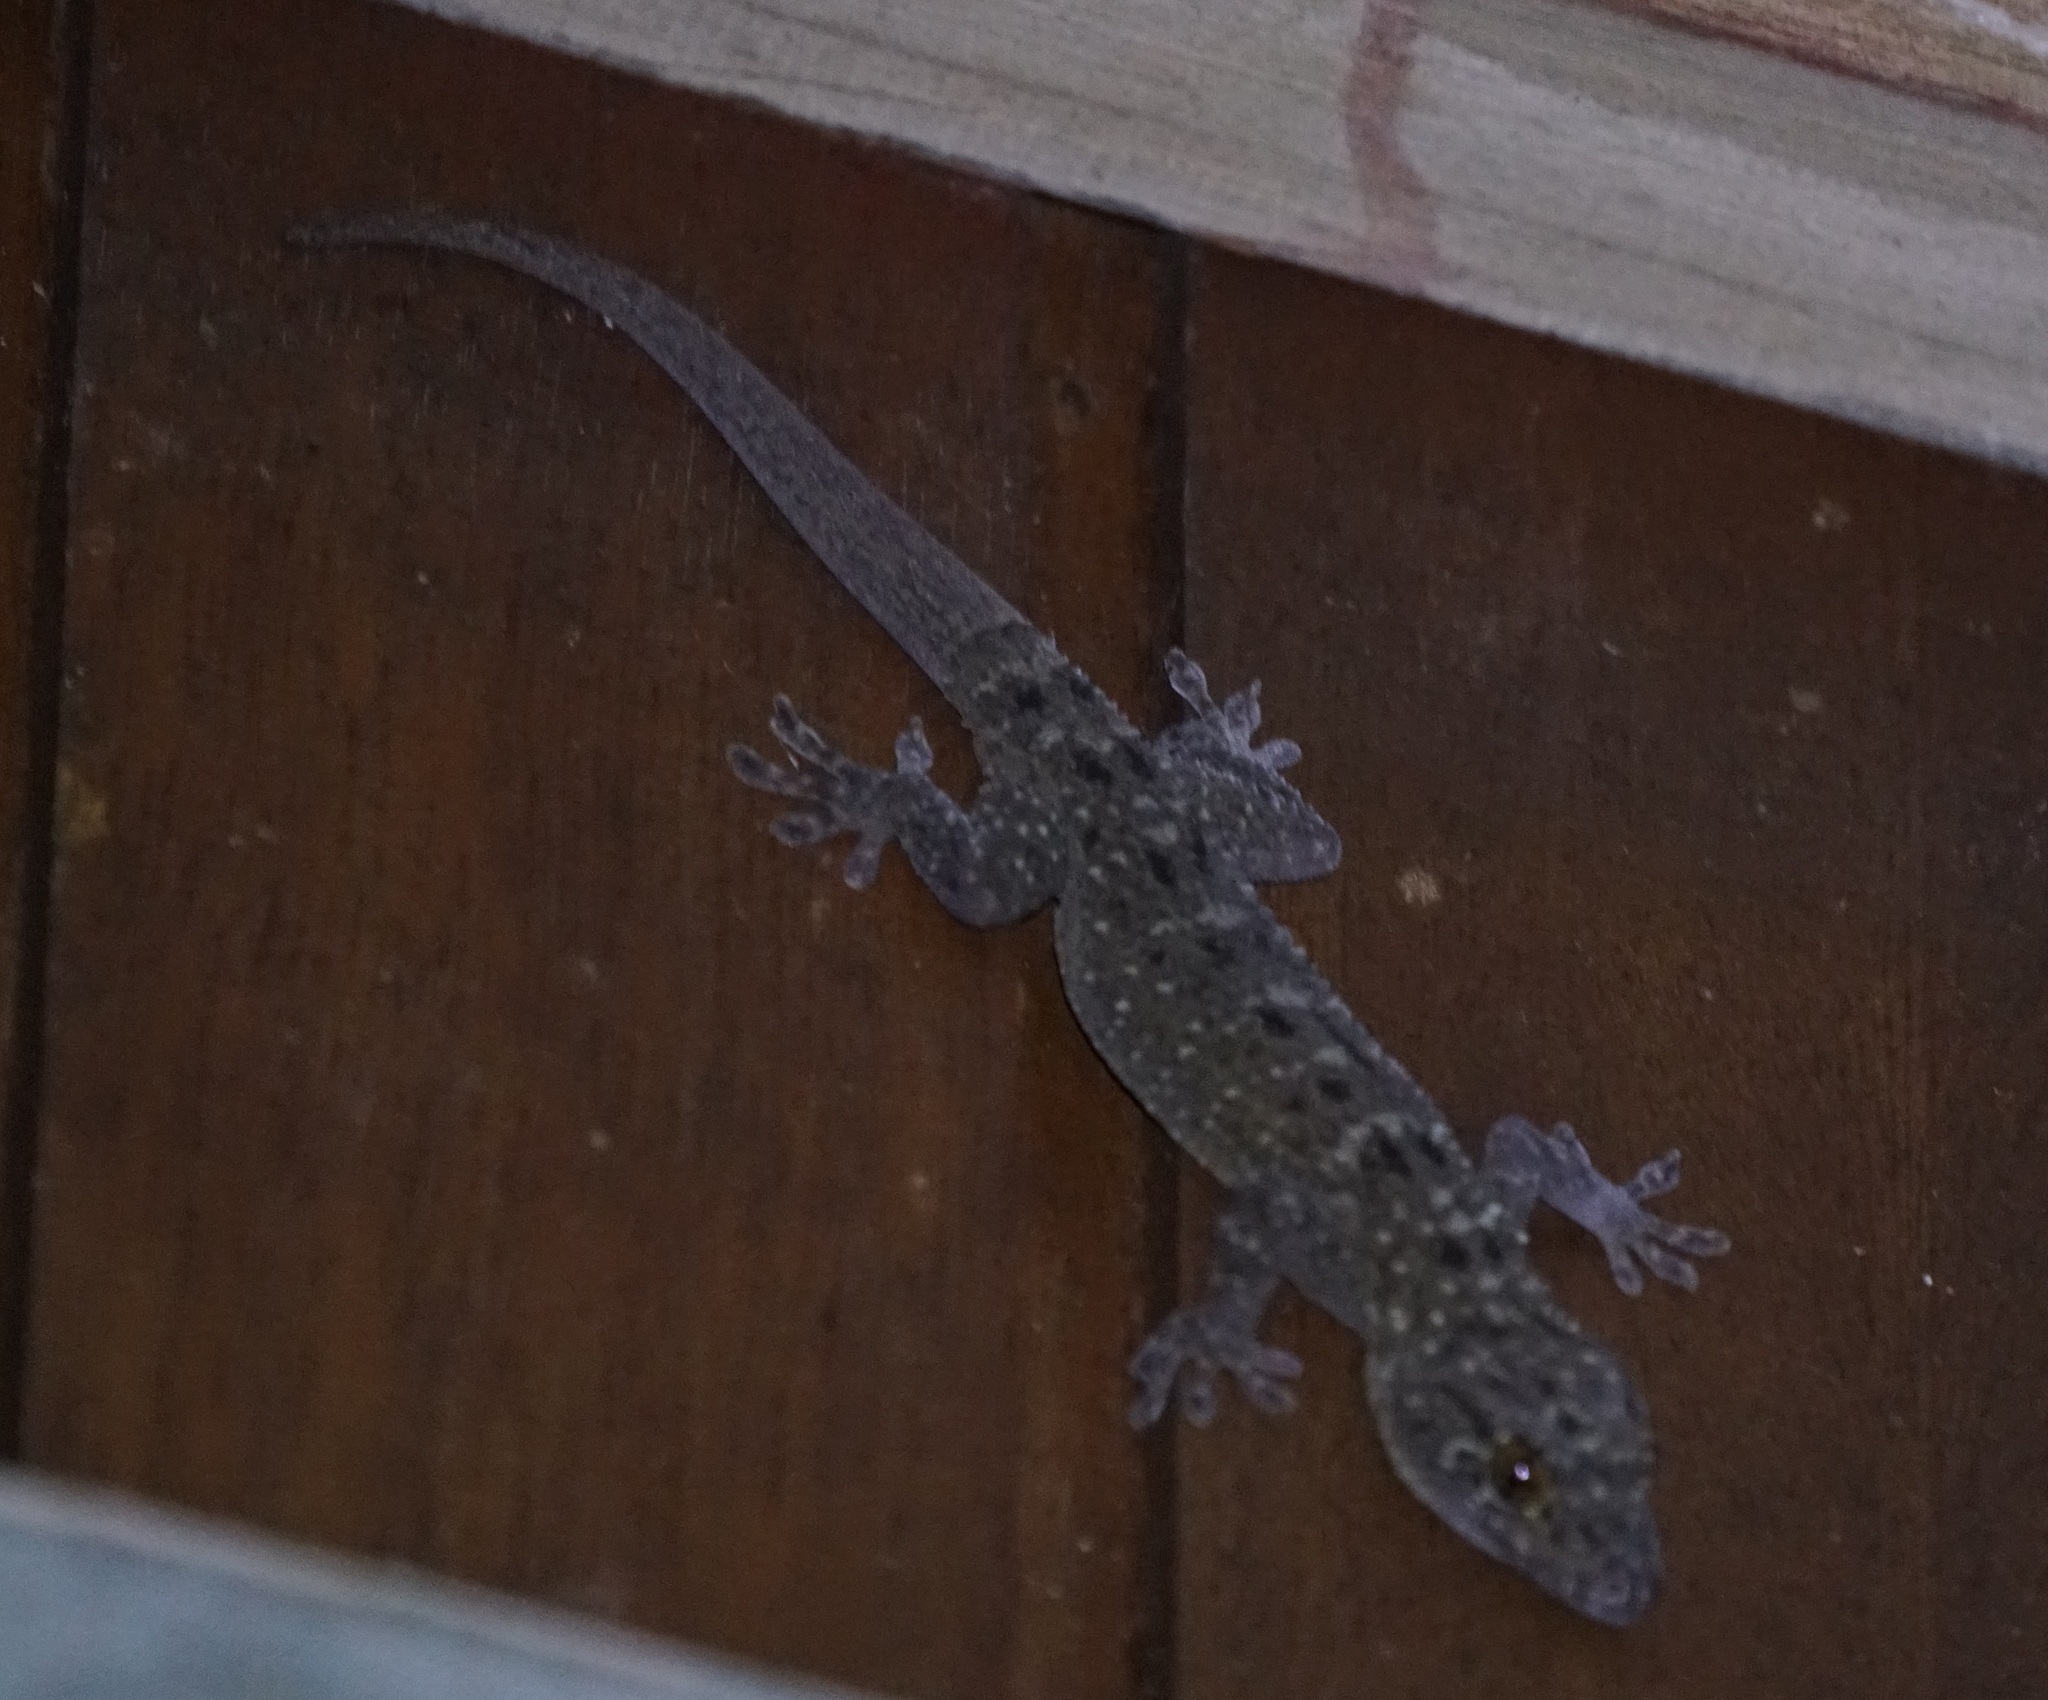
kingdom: Animalia
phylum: Chordata
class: Squamata
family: Gekkonidae
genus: Gekko
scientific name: Gekko monarchus
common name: Spotted house gecko
